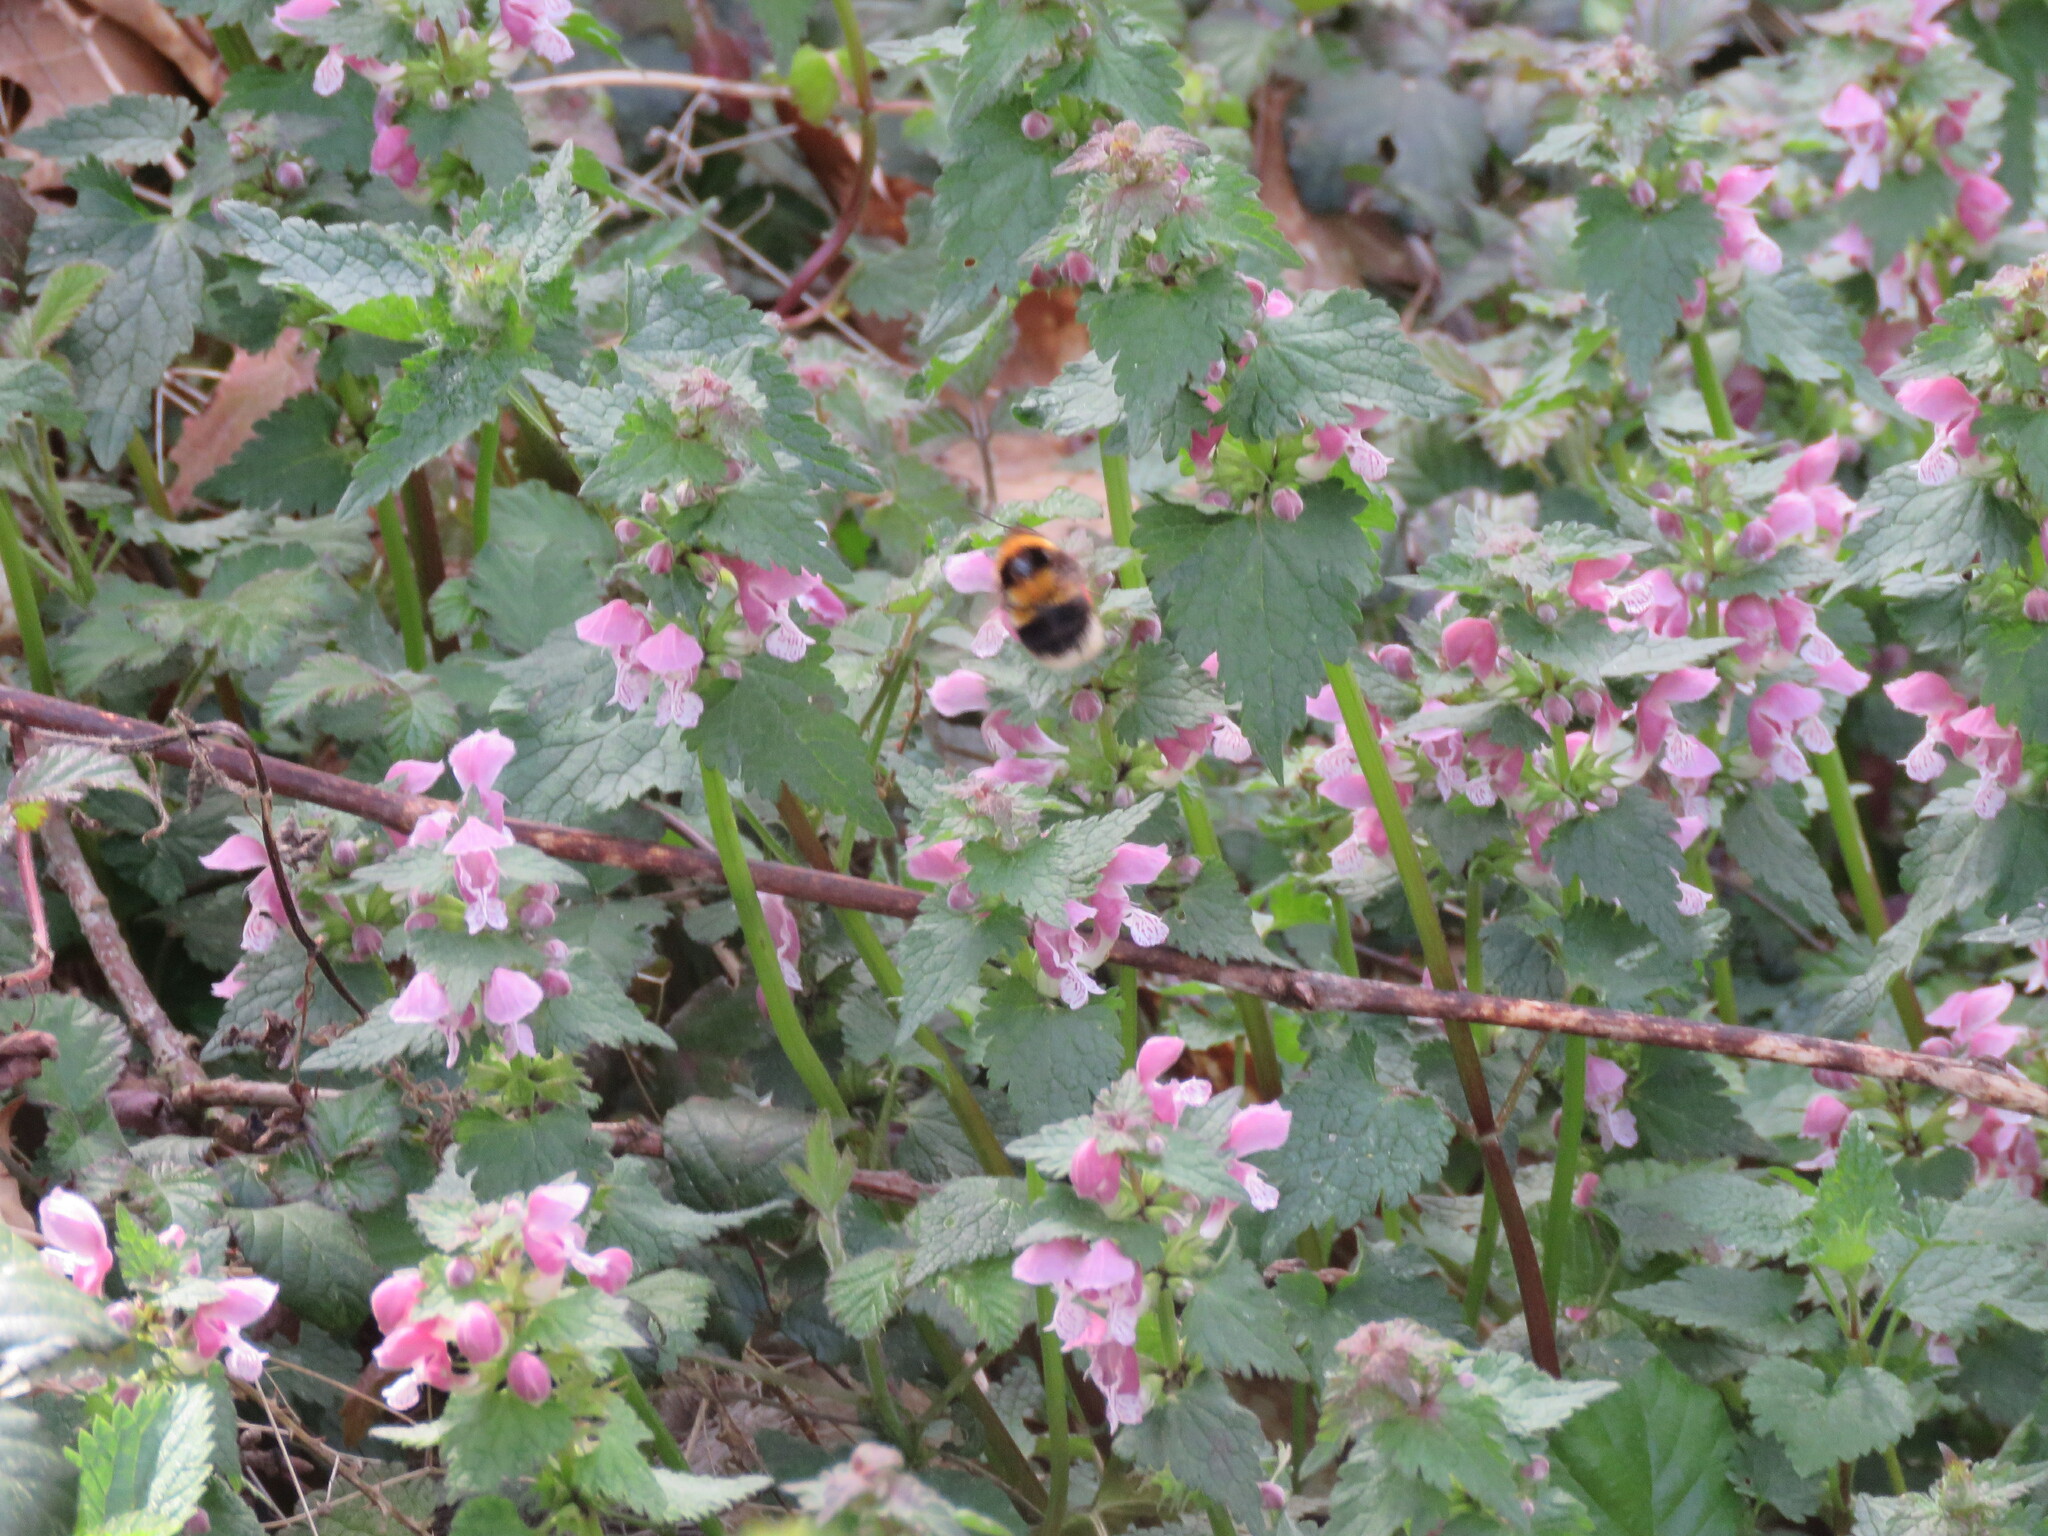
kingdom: Animalia
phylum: Arthropoda
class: Insecta
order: Hymenoptera
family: Apidae
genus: Bombus
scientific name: Bombus ruderatus
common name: Large garden bumblebee
